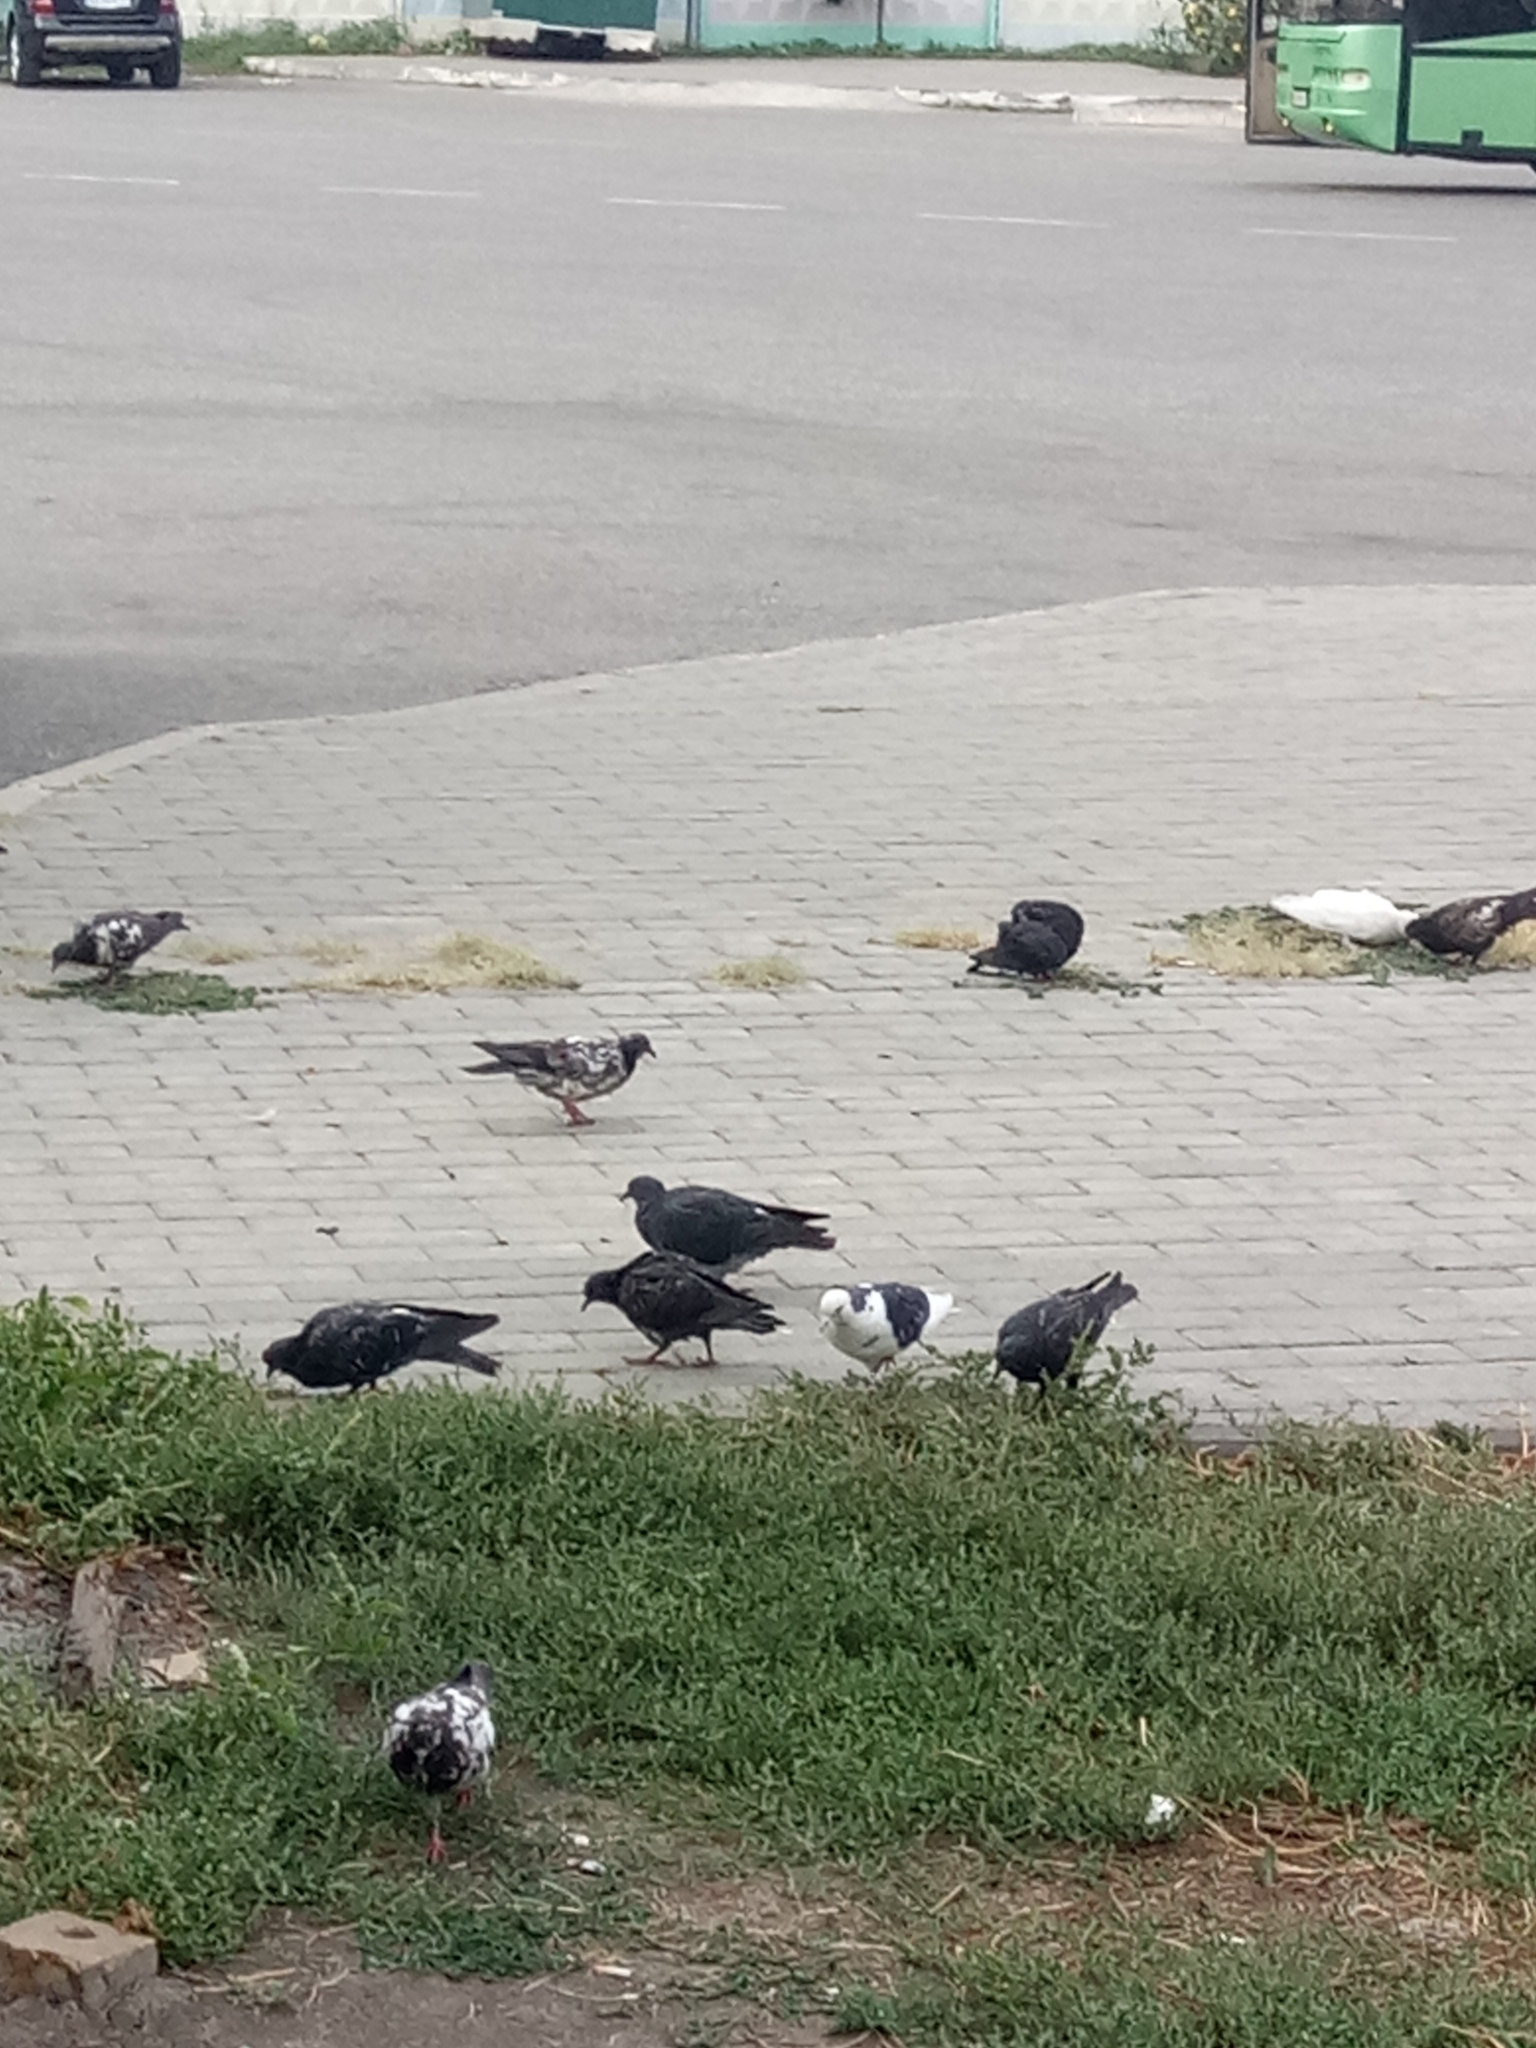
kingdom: Animalia
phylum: Chordata
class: Aves
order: Columbiformes
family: Columbidae
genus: Columba
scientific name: Columba livia
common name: Rock pigeon
